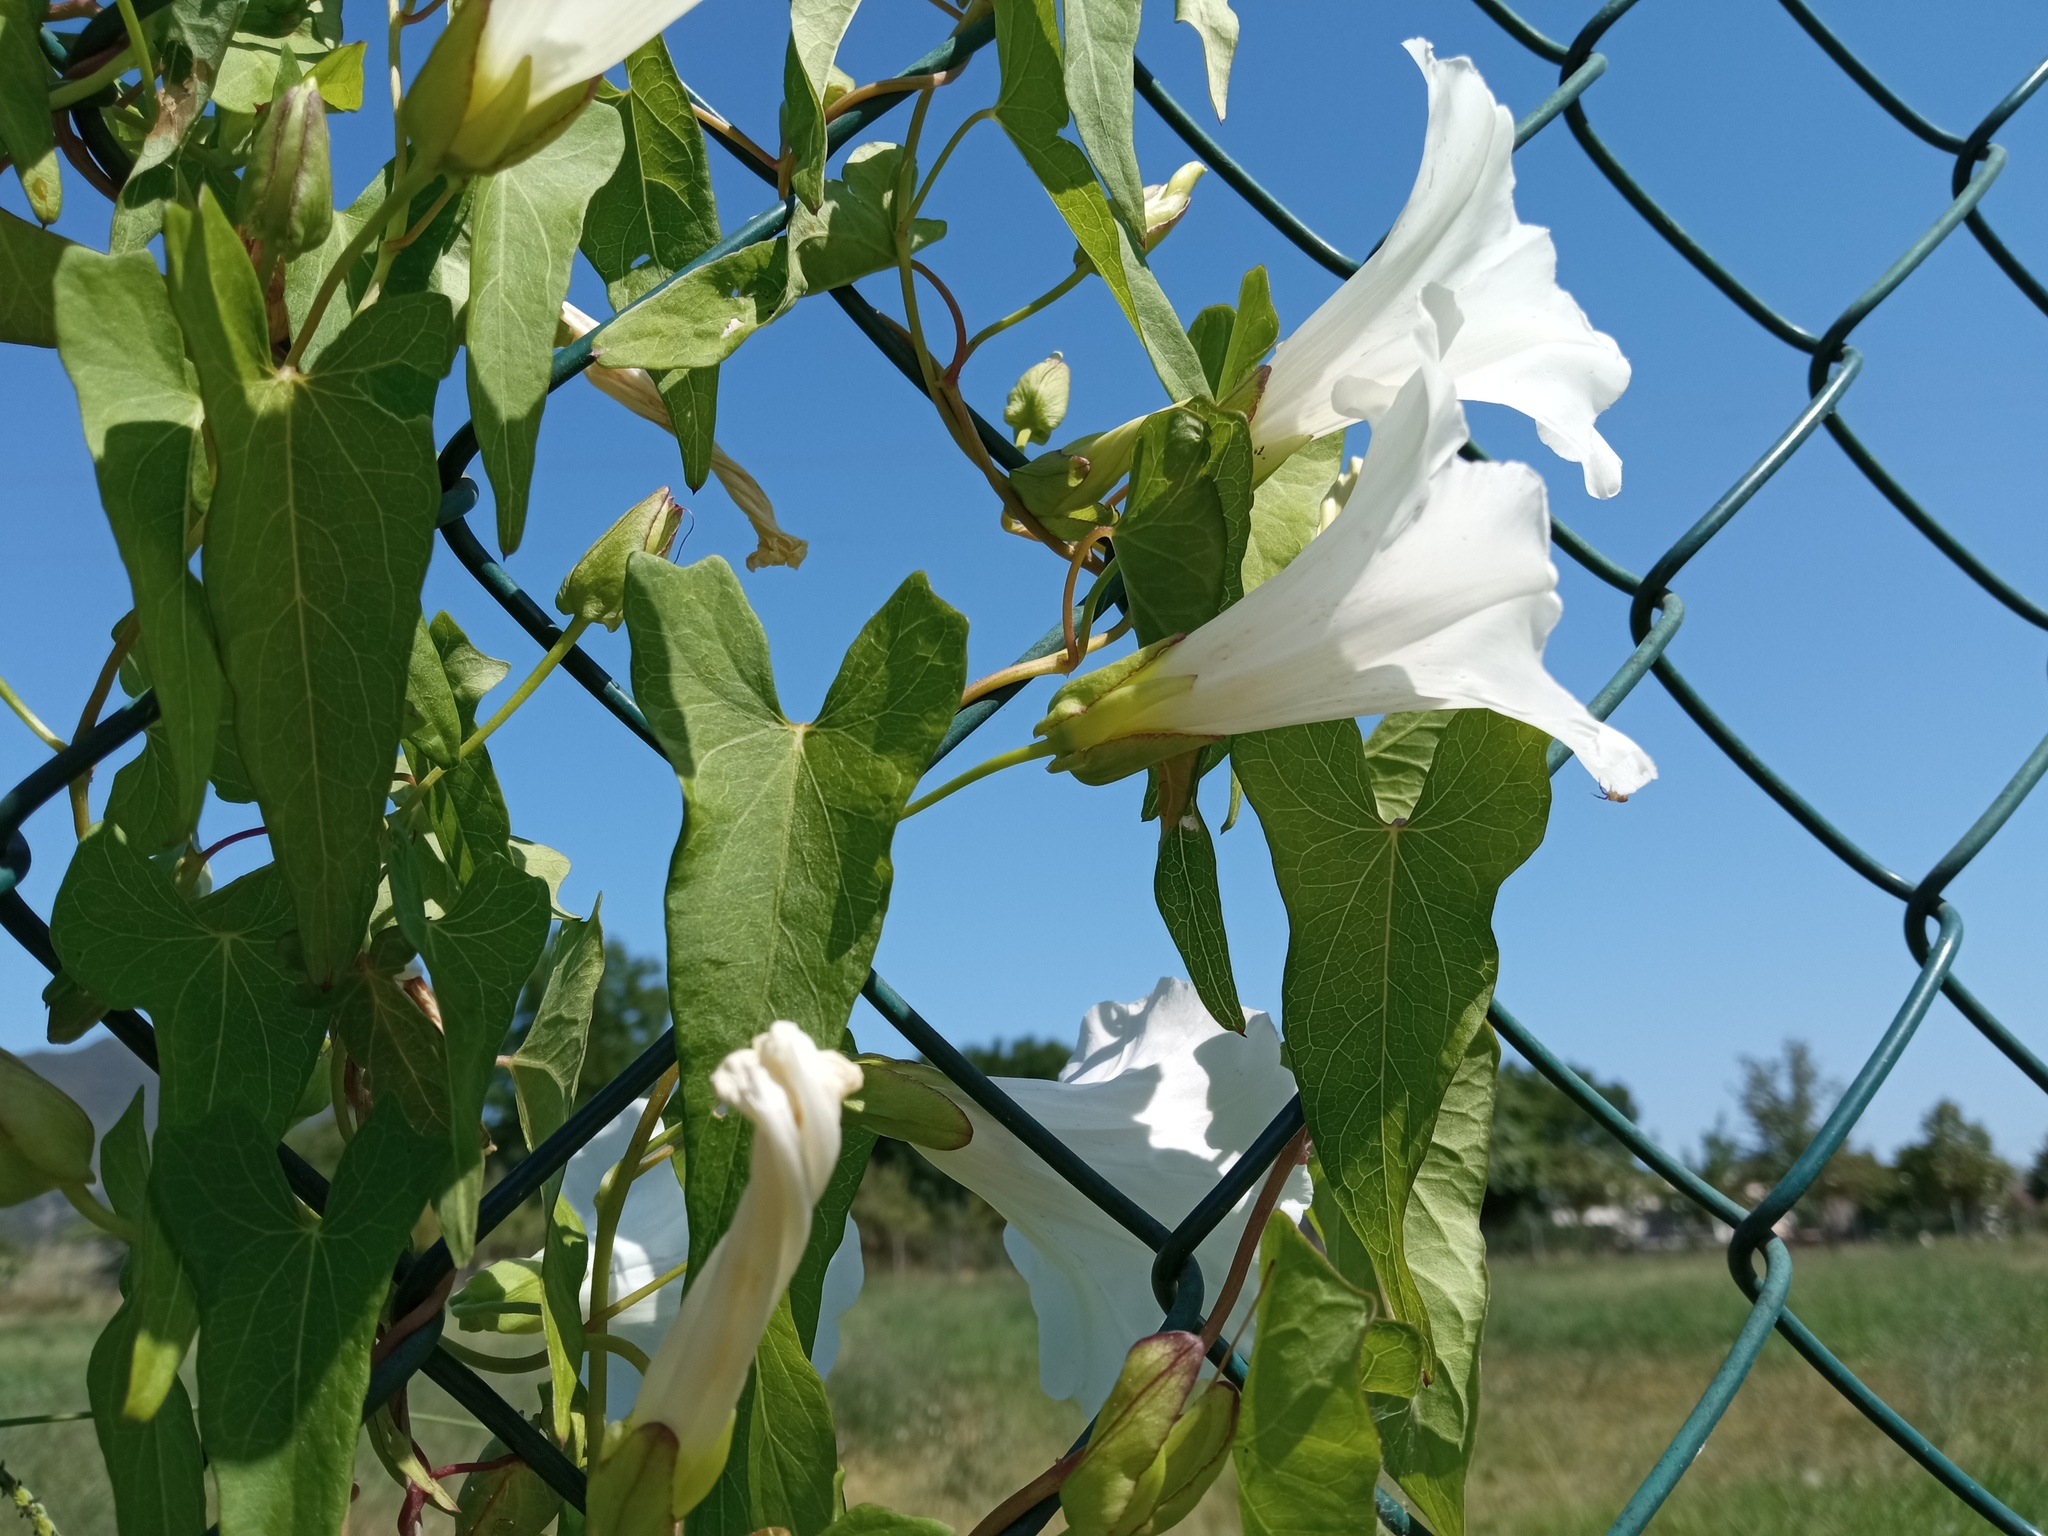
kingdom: Plantae
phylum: Tracheophyta
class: Magnoliopsida
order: Solanales
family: Convolvulaceae
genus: Calystegia
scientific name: Calystegia sepium
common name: Hedge bindweed
